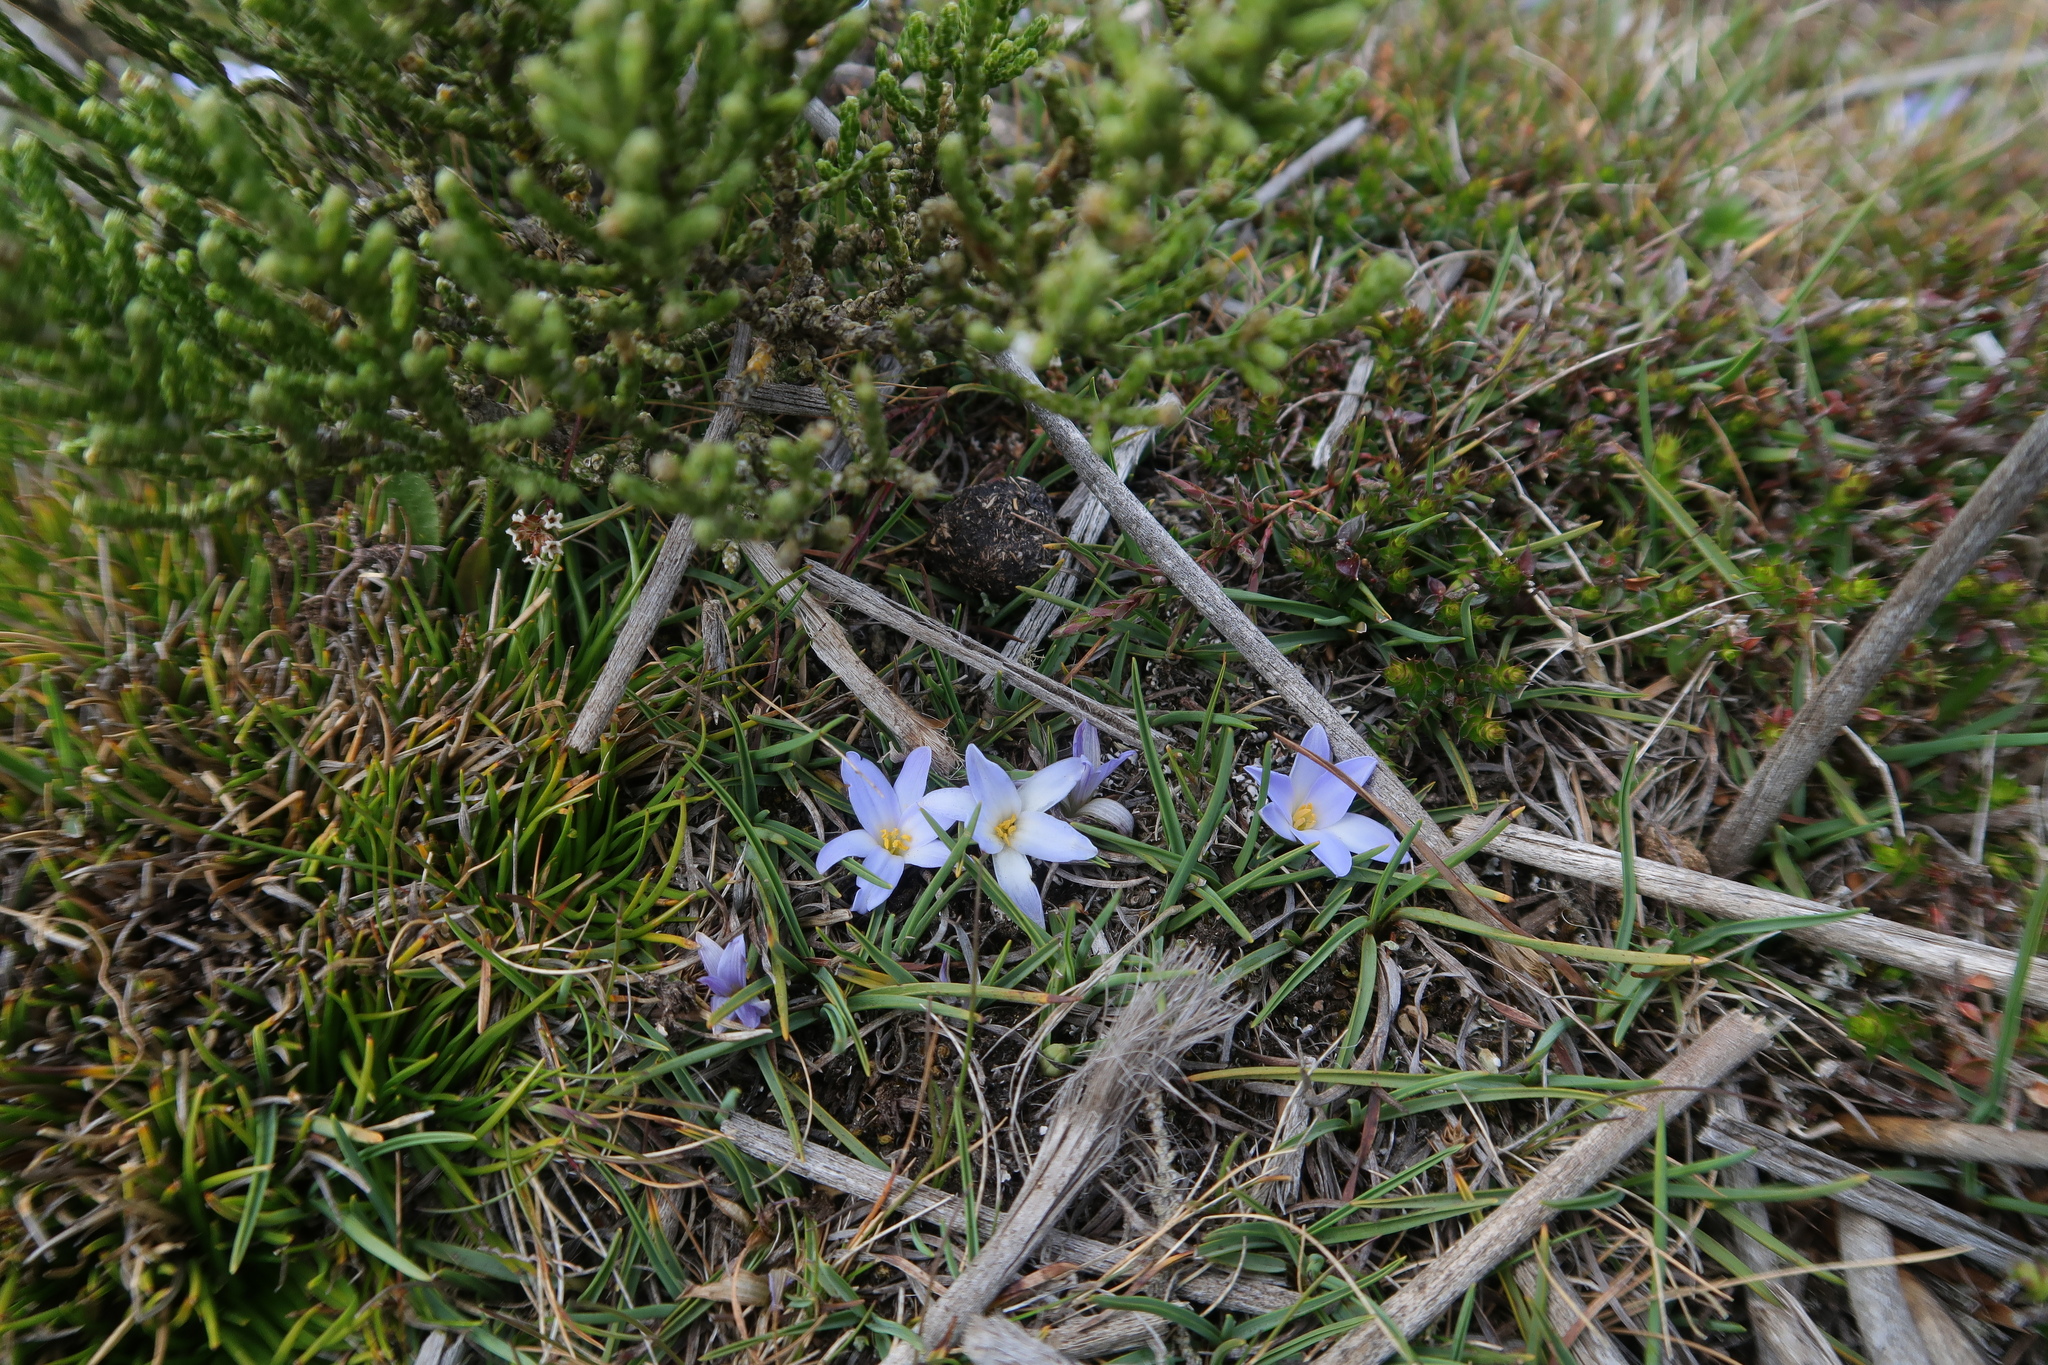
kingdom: Plantae
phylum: Tracheophyta
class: Liliopsida
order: Asparagales
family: Asphodelaceae
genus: Herpolirion
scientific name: Herpolirion novae-zelandiae
